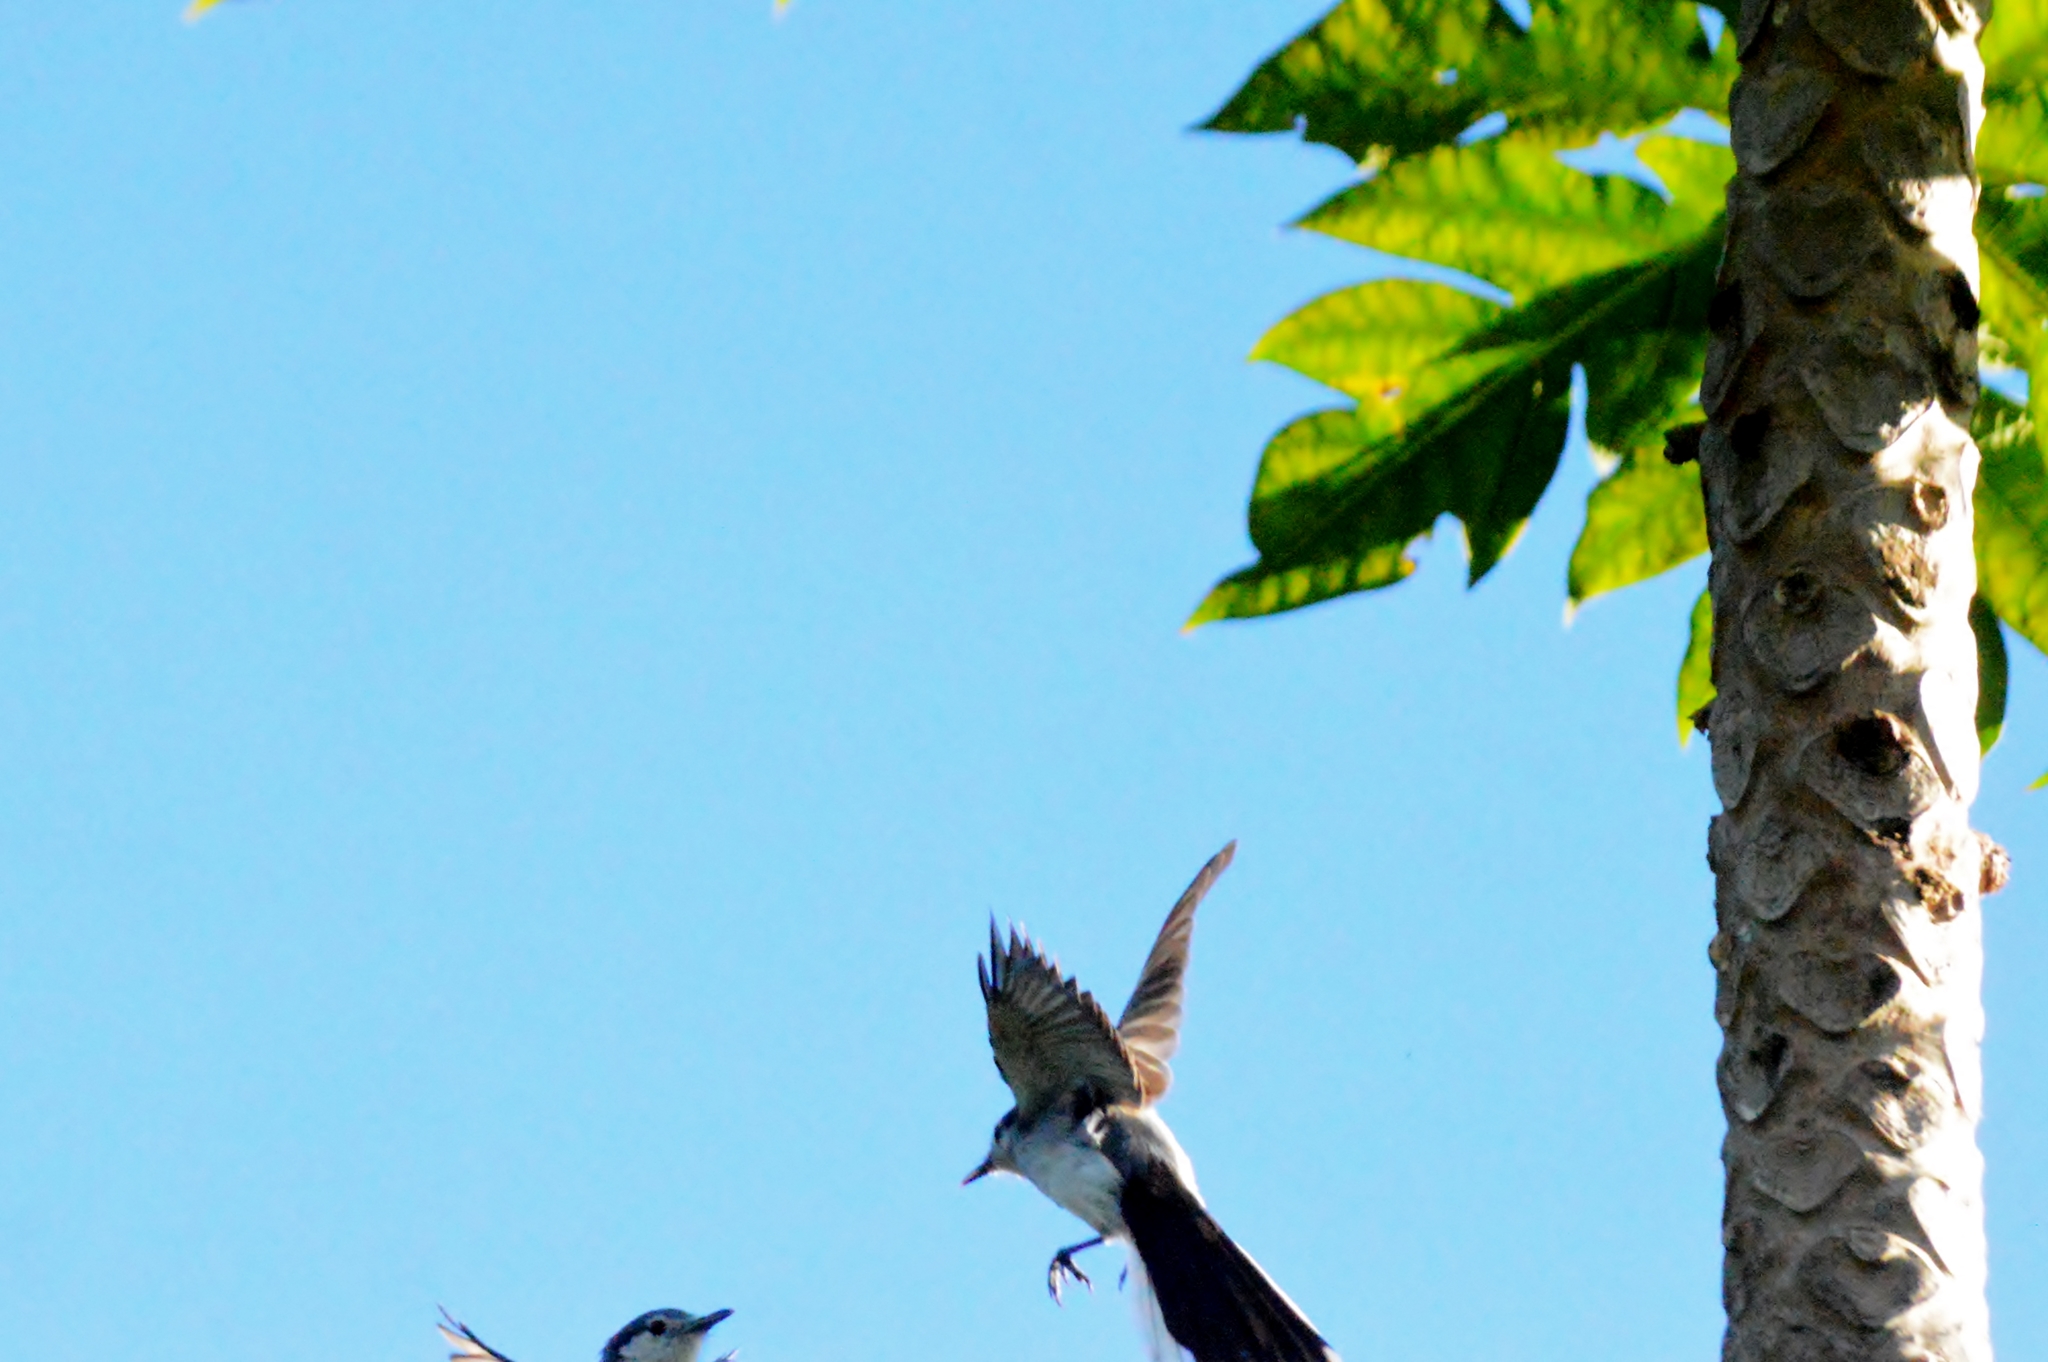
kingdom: Animalia
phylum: Chordata
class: Aves
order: Passeriformes
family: Polioptilidae
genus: Polioptila
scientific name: Polioptila dumicola
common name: Masked gnatcatcher
